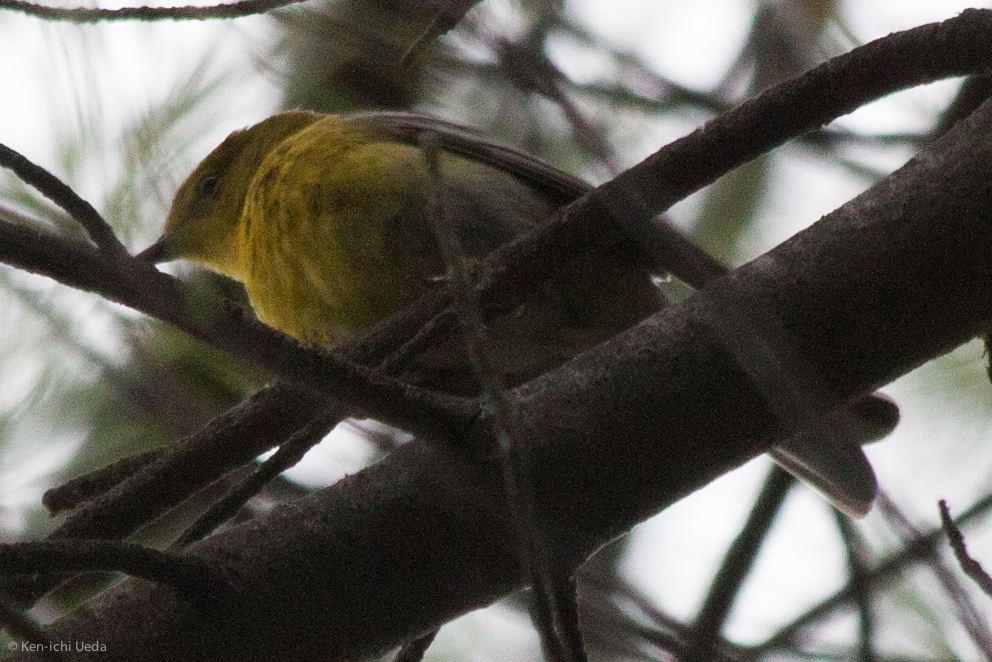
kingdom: Animalia
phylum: Chordata
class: Aves
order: Passeriformes
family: Parulidae
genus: Setophaga
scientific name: Setophaga pinus
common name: Pine warbler
